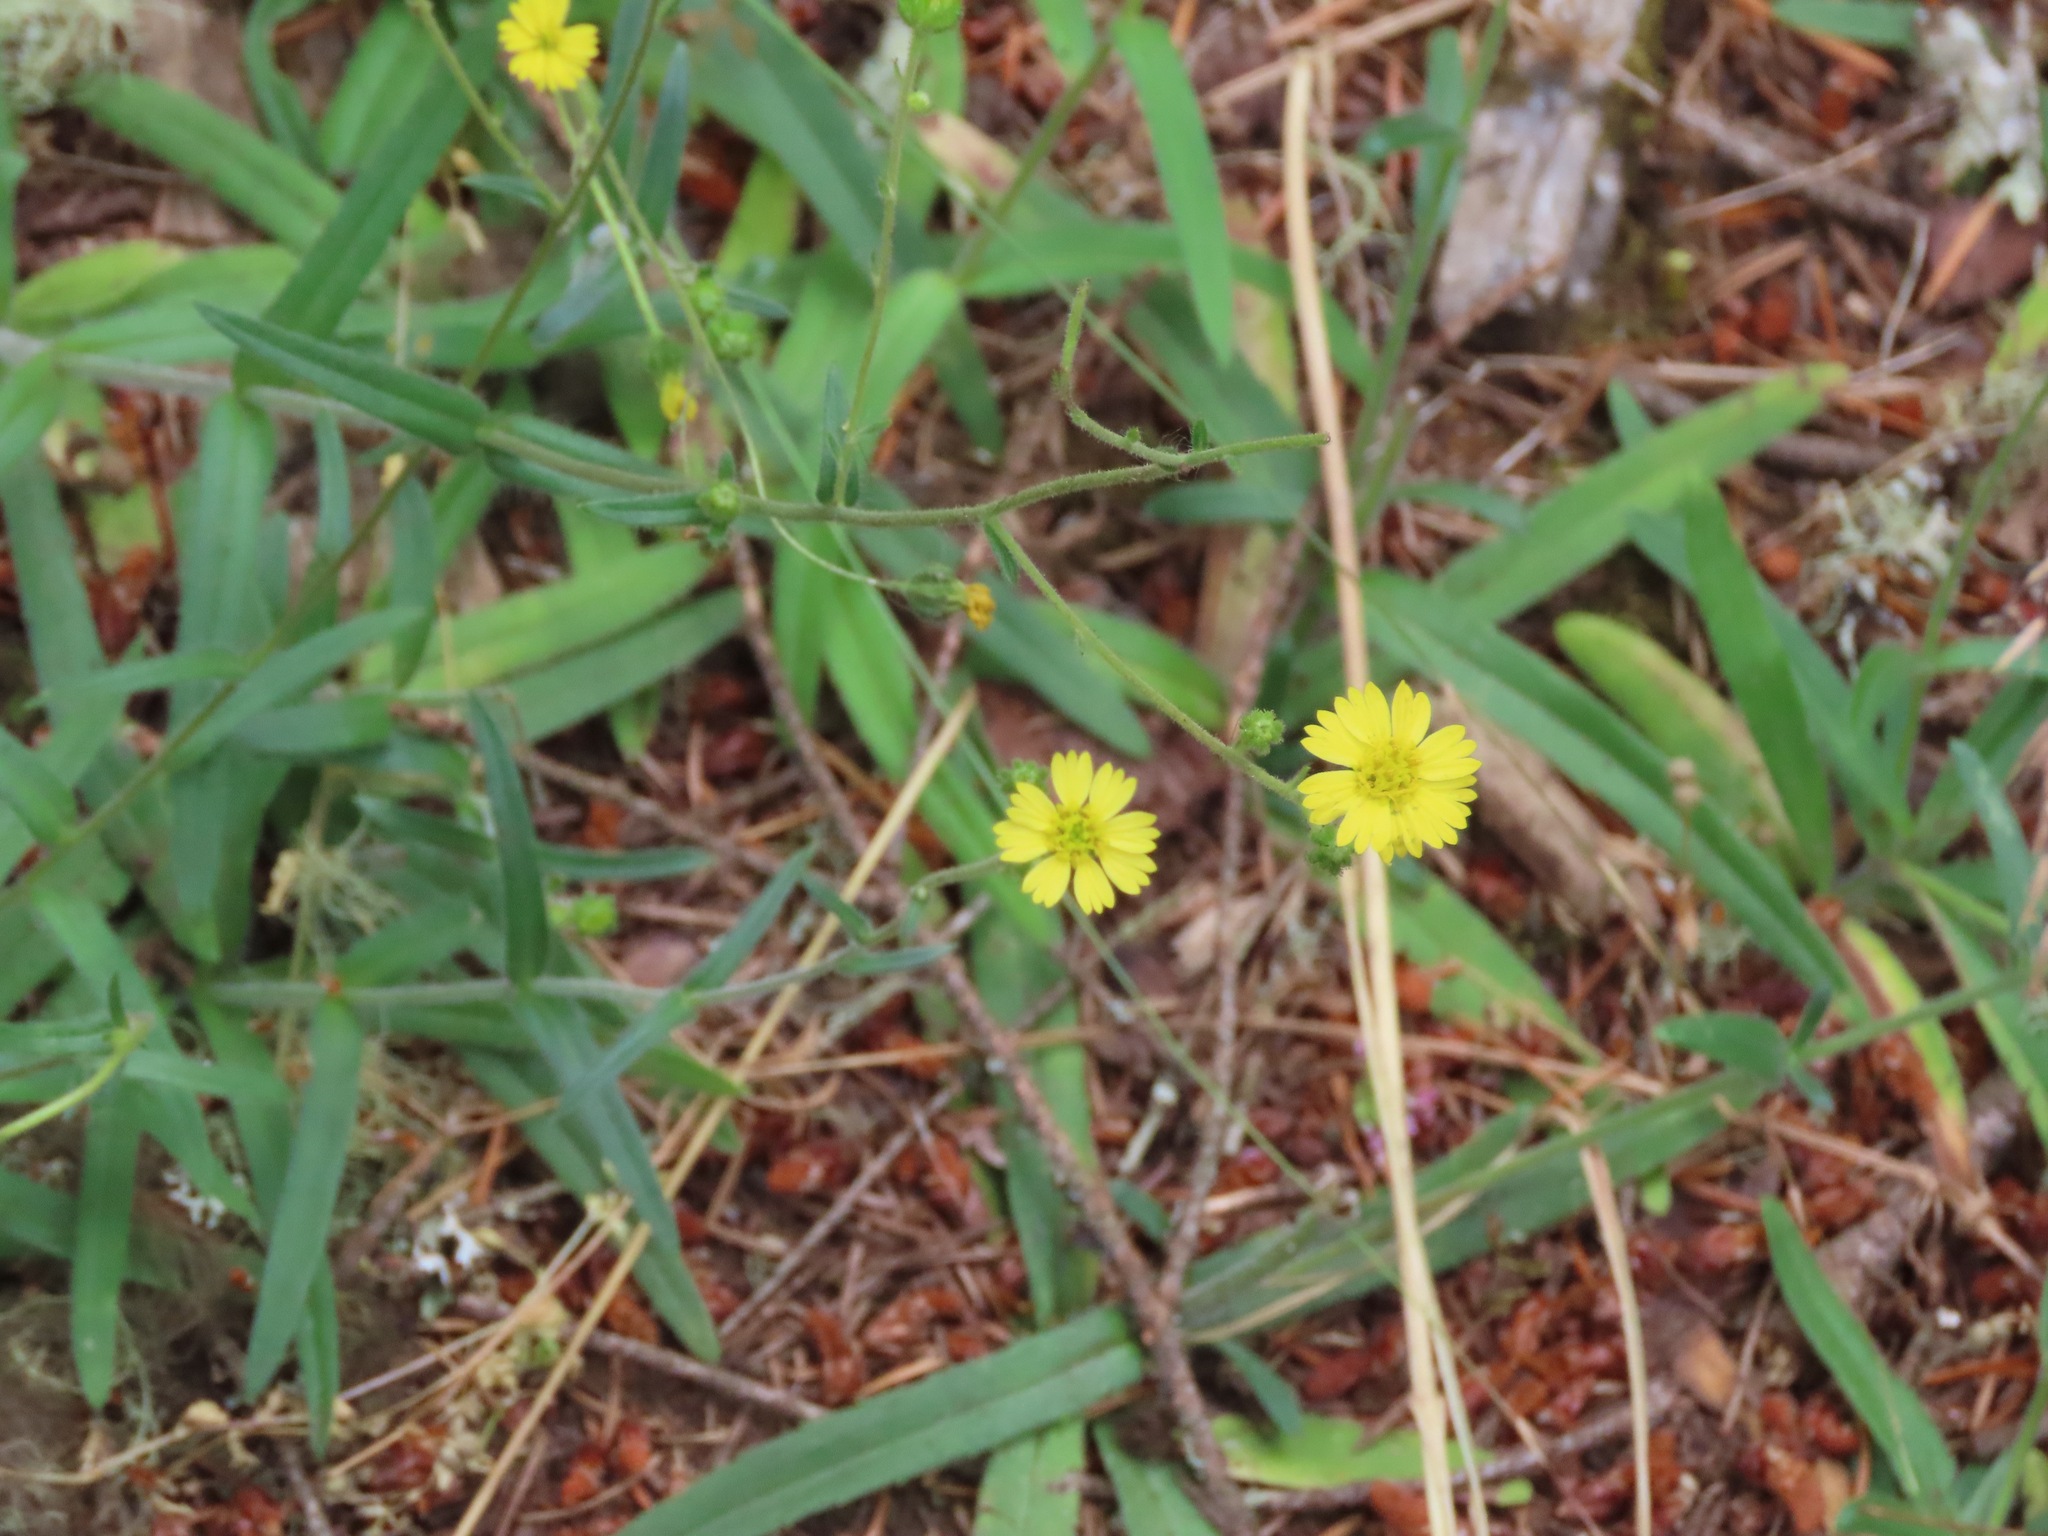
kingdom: Plantae
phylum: Tracheophyta
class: Magnoliopsida
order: Asterales
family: Asteraceae
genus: Anisocarpus
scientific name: Anisocarpus madioides
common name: Woodland madia
